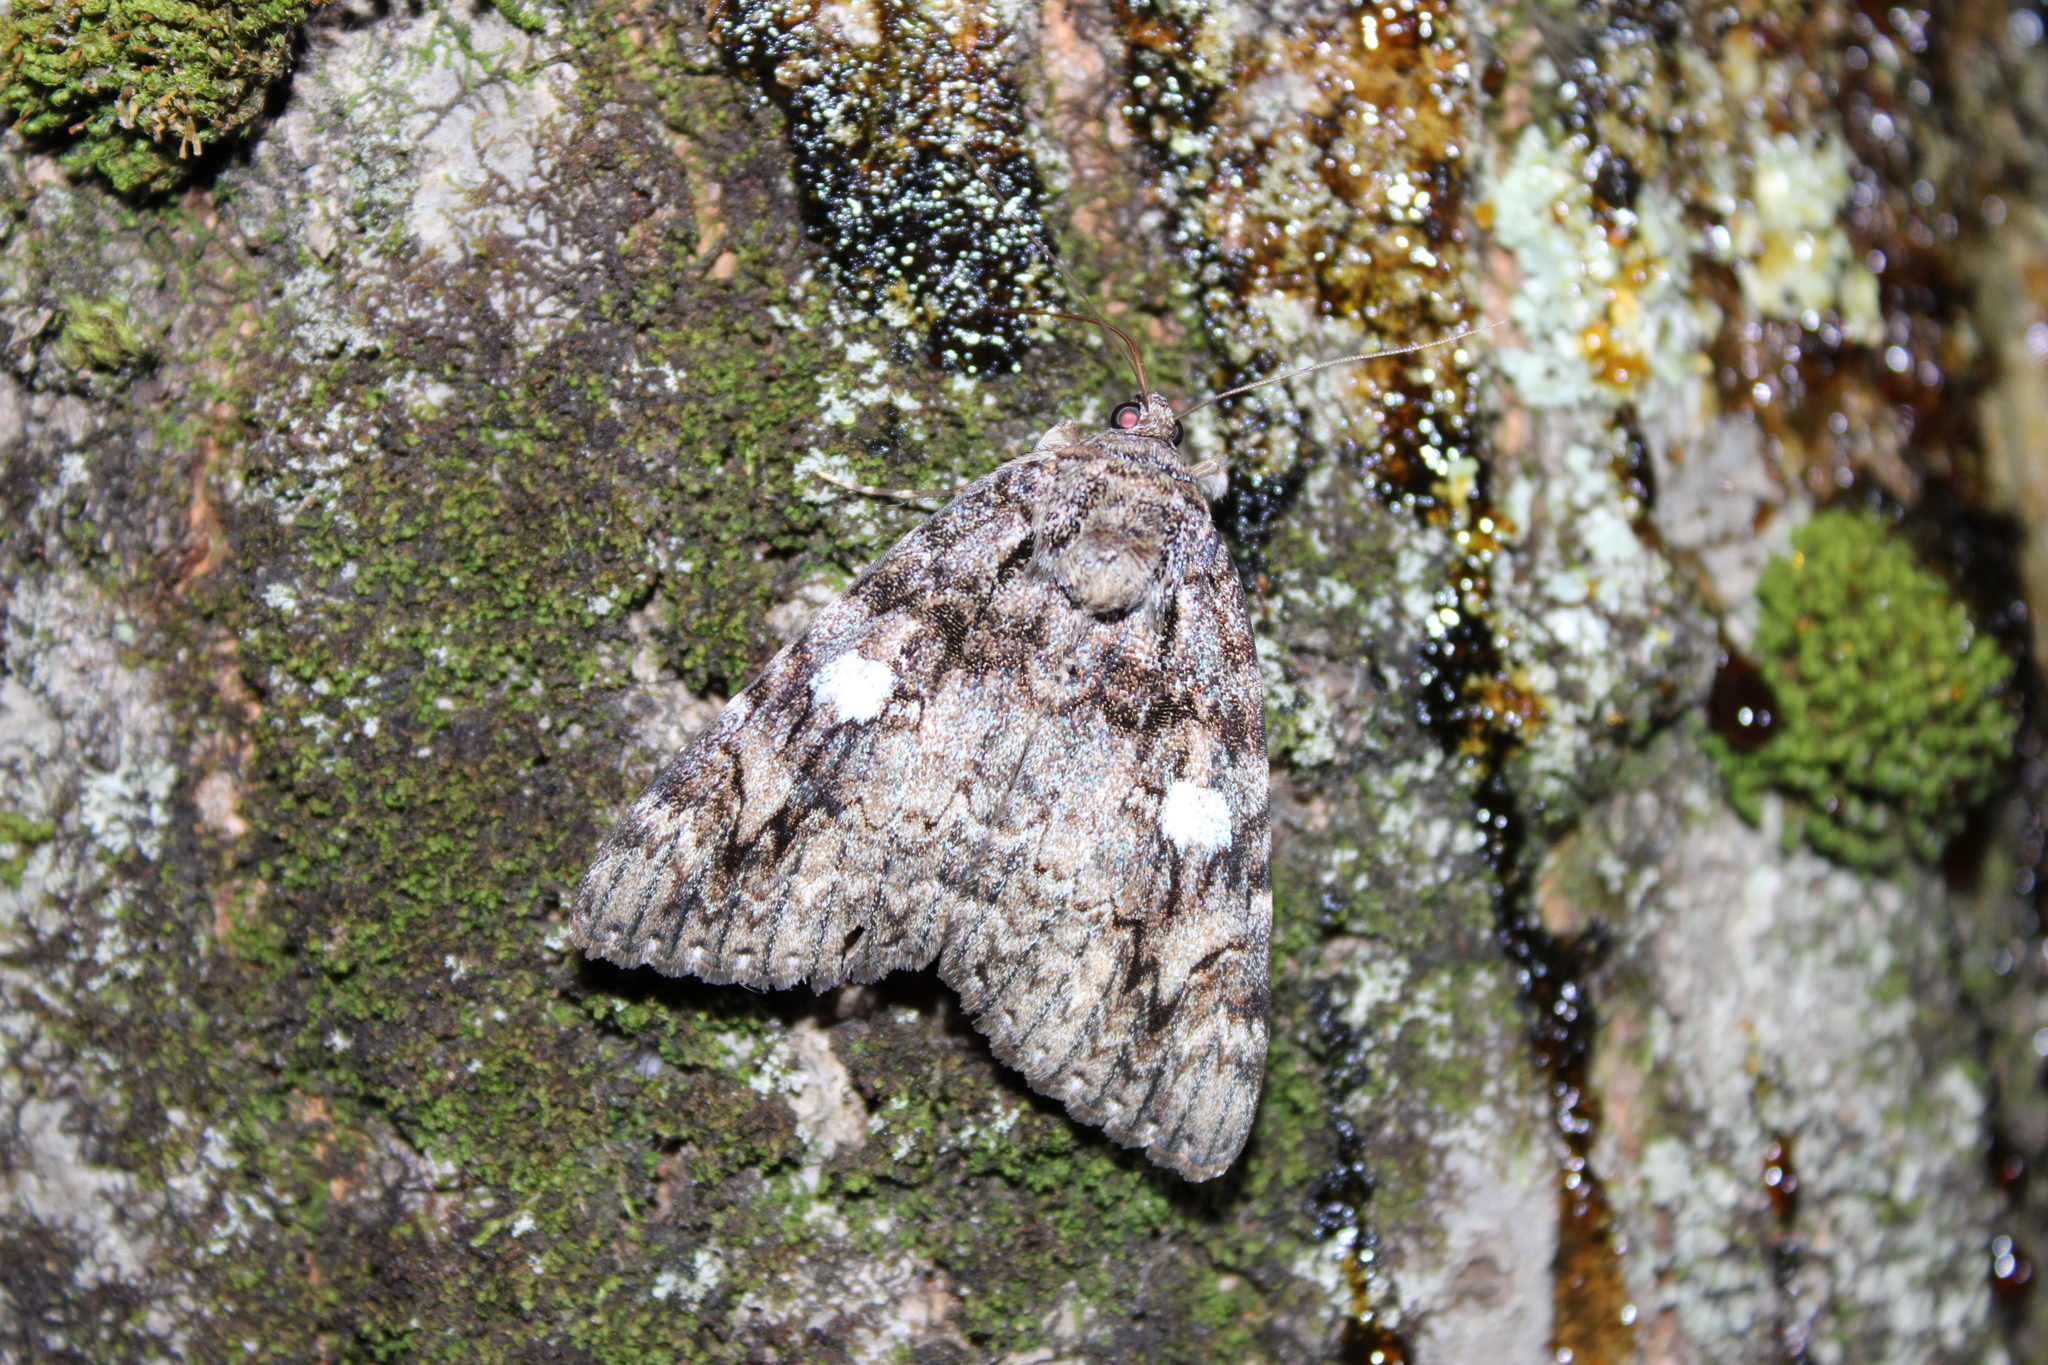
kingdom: Animalia
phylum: Arthropoda
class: Insecta
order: Lepidoptera
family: Erebidae
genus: Catocala
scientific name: Catocala ilia
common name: Ilia underwing
